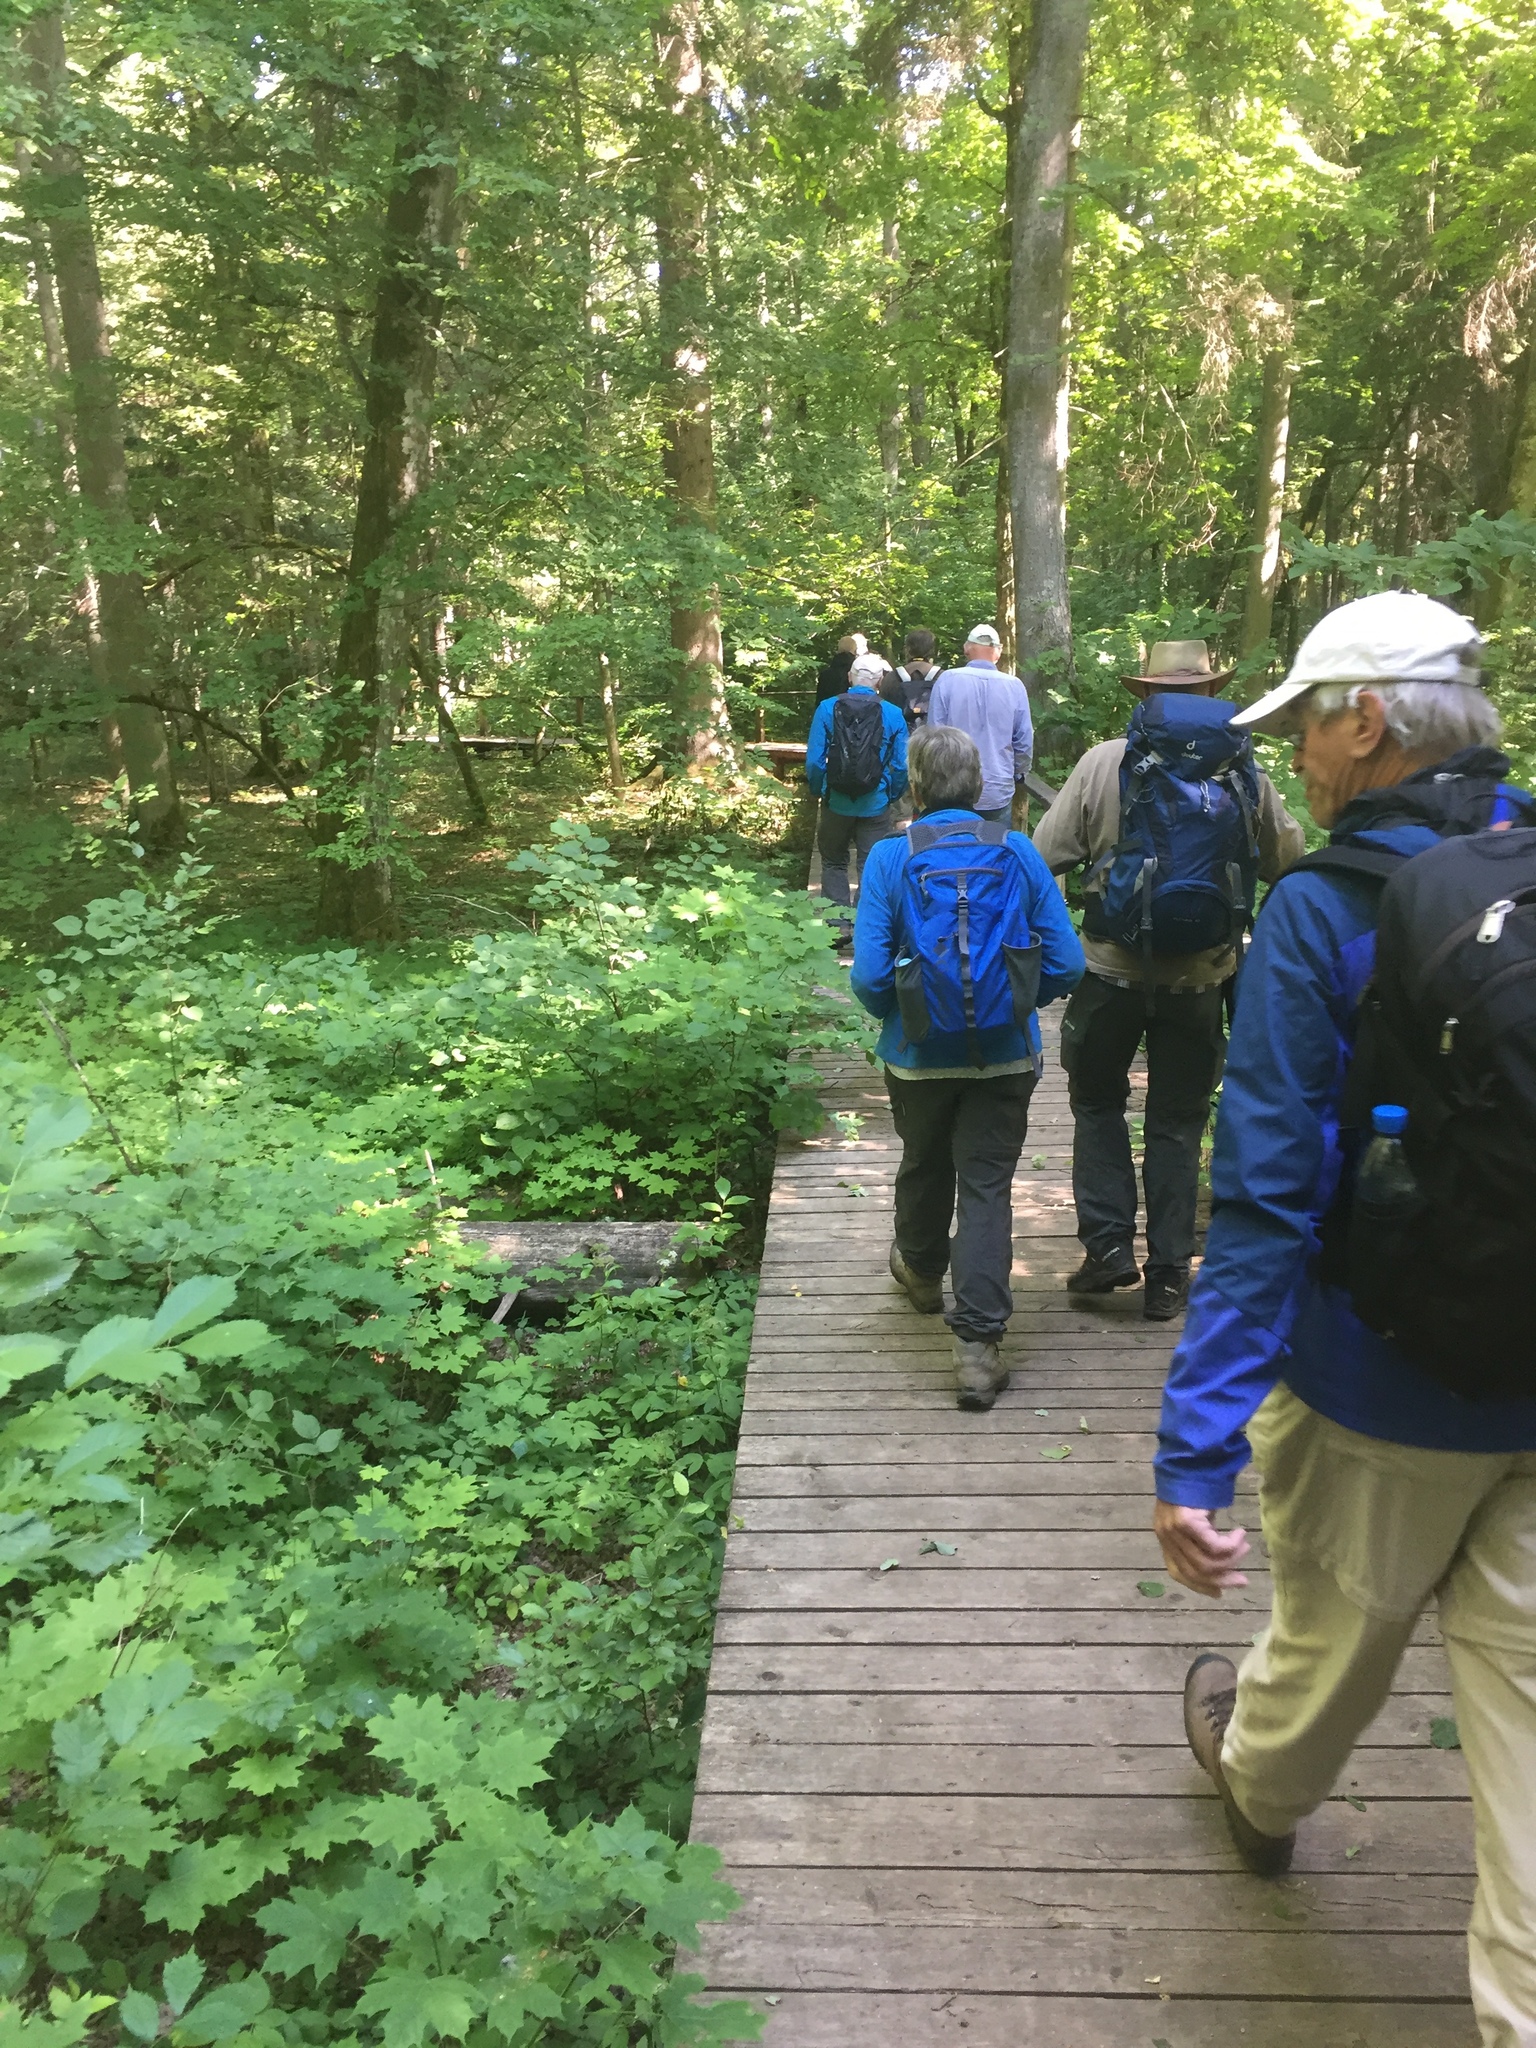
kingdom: Plantae
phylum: Tracheophyta
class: Magnoliopsida
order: Sapindales
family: Sapindaceae
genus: Acer
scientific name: Acer platanoides
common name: Norway maple
